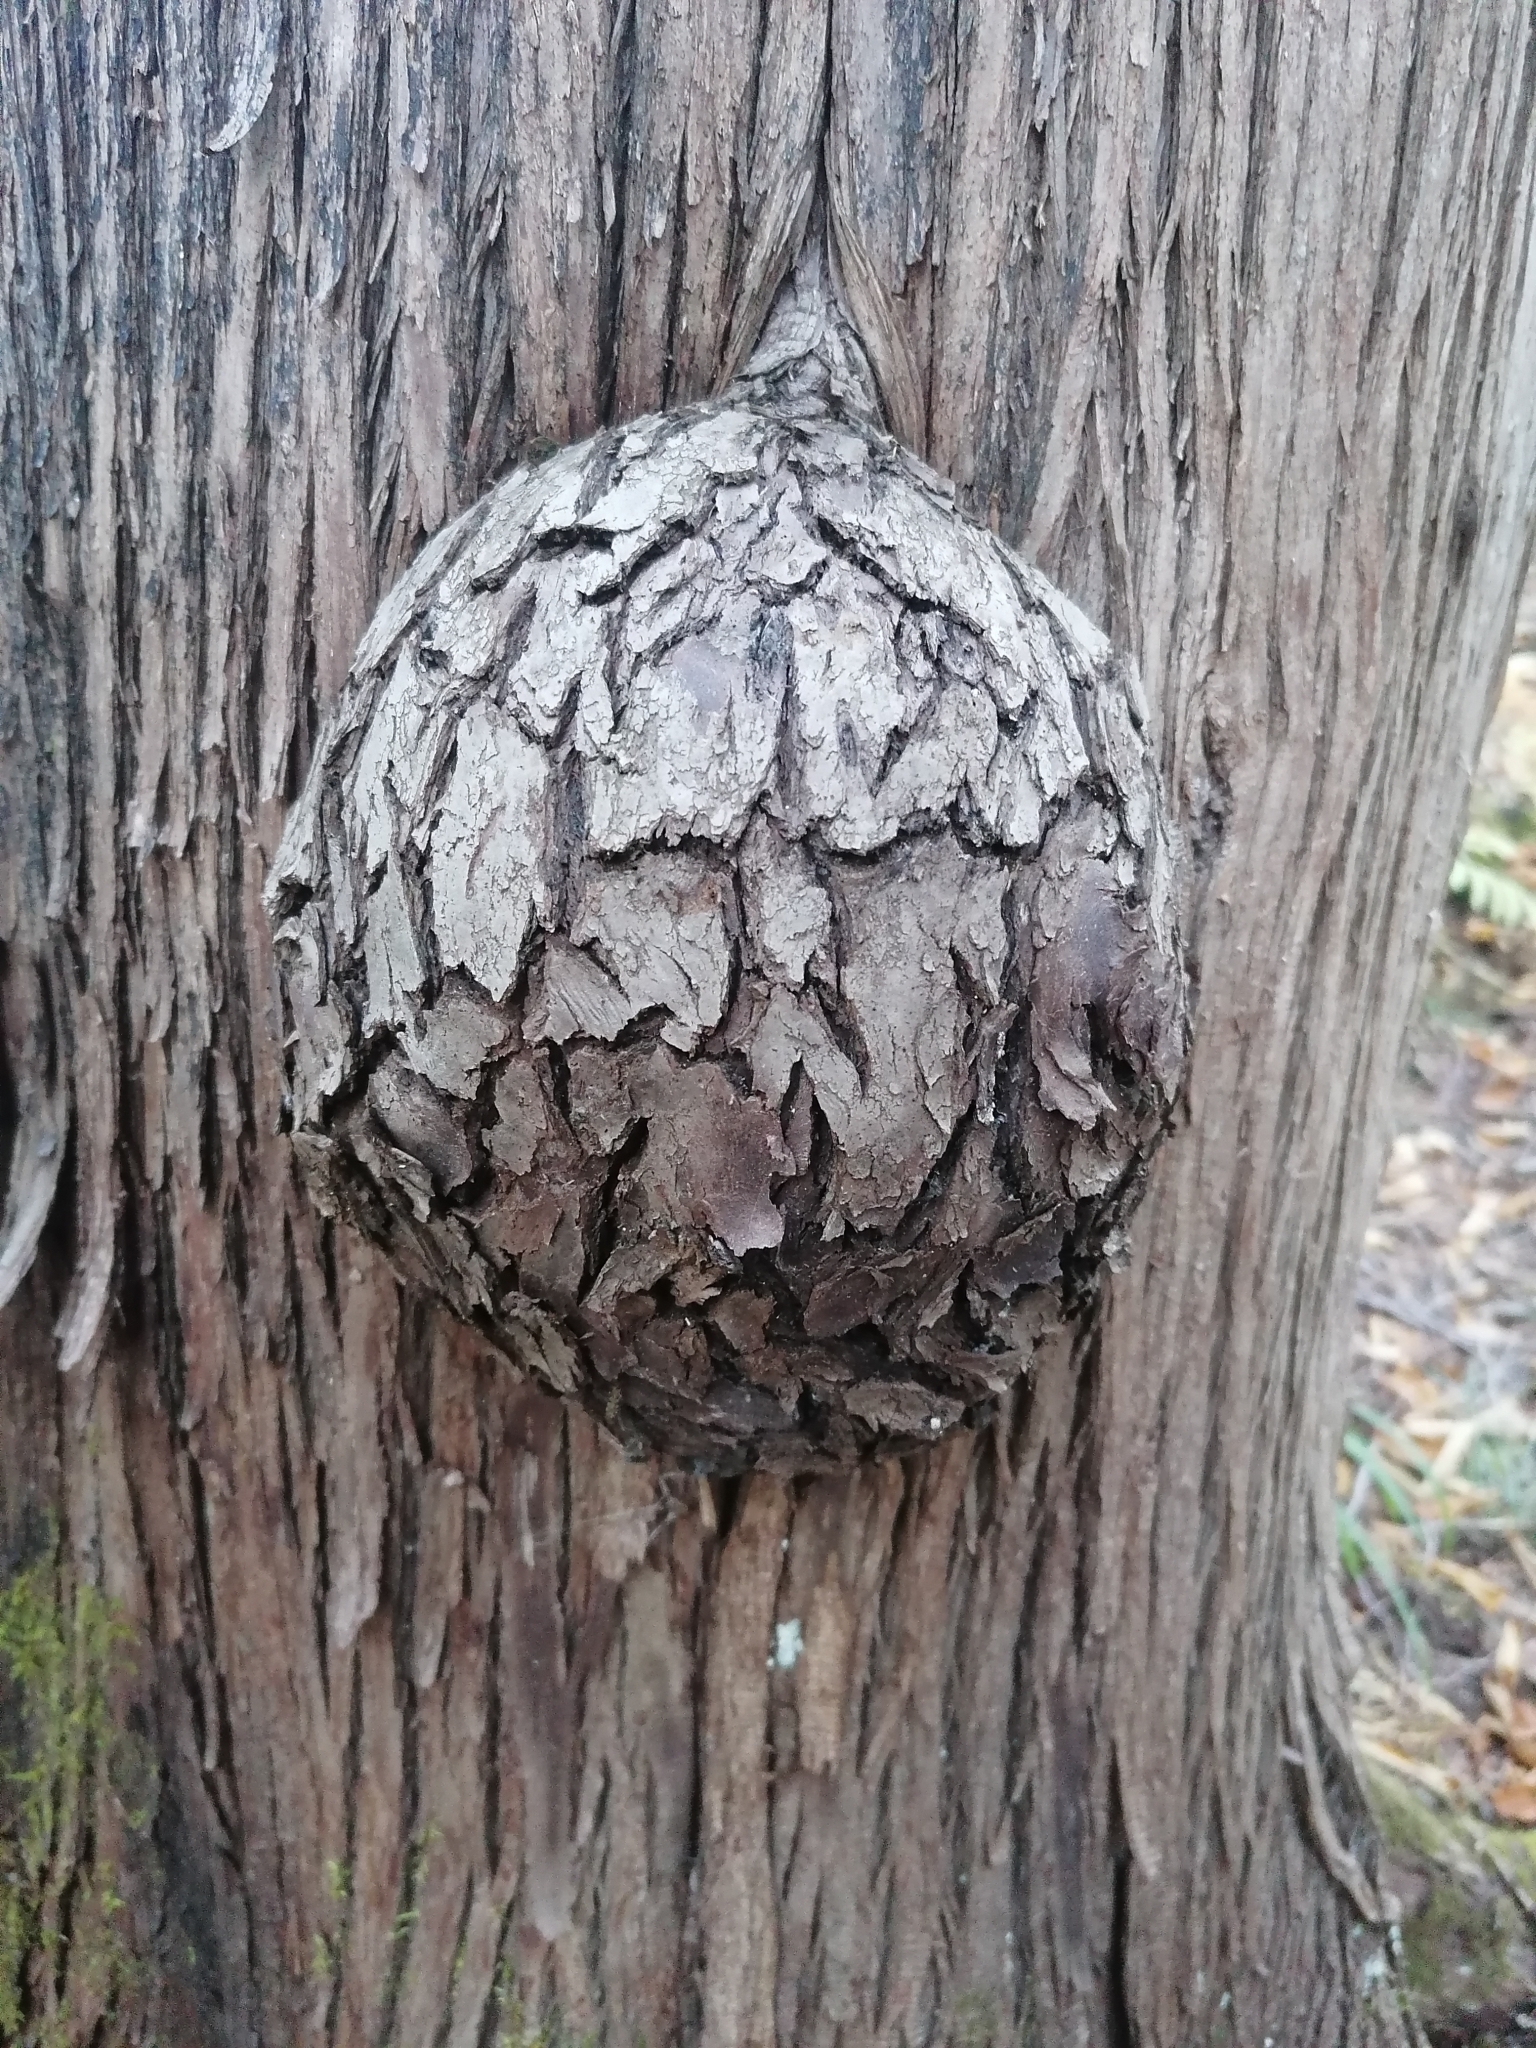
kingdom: Bacteria
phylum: Proteobacteria
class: Alphaproteobacteria
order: Rhizobiales
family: Rhizobiaceae
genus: Rhizobium
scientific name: Rhizobium Agrobacterium radiobacter
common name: Bacterial crown gall
